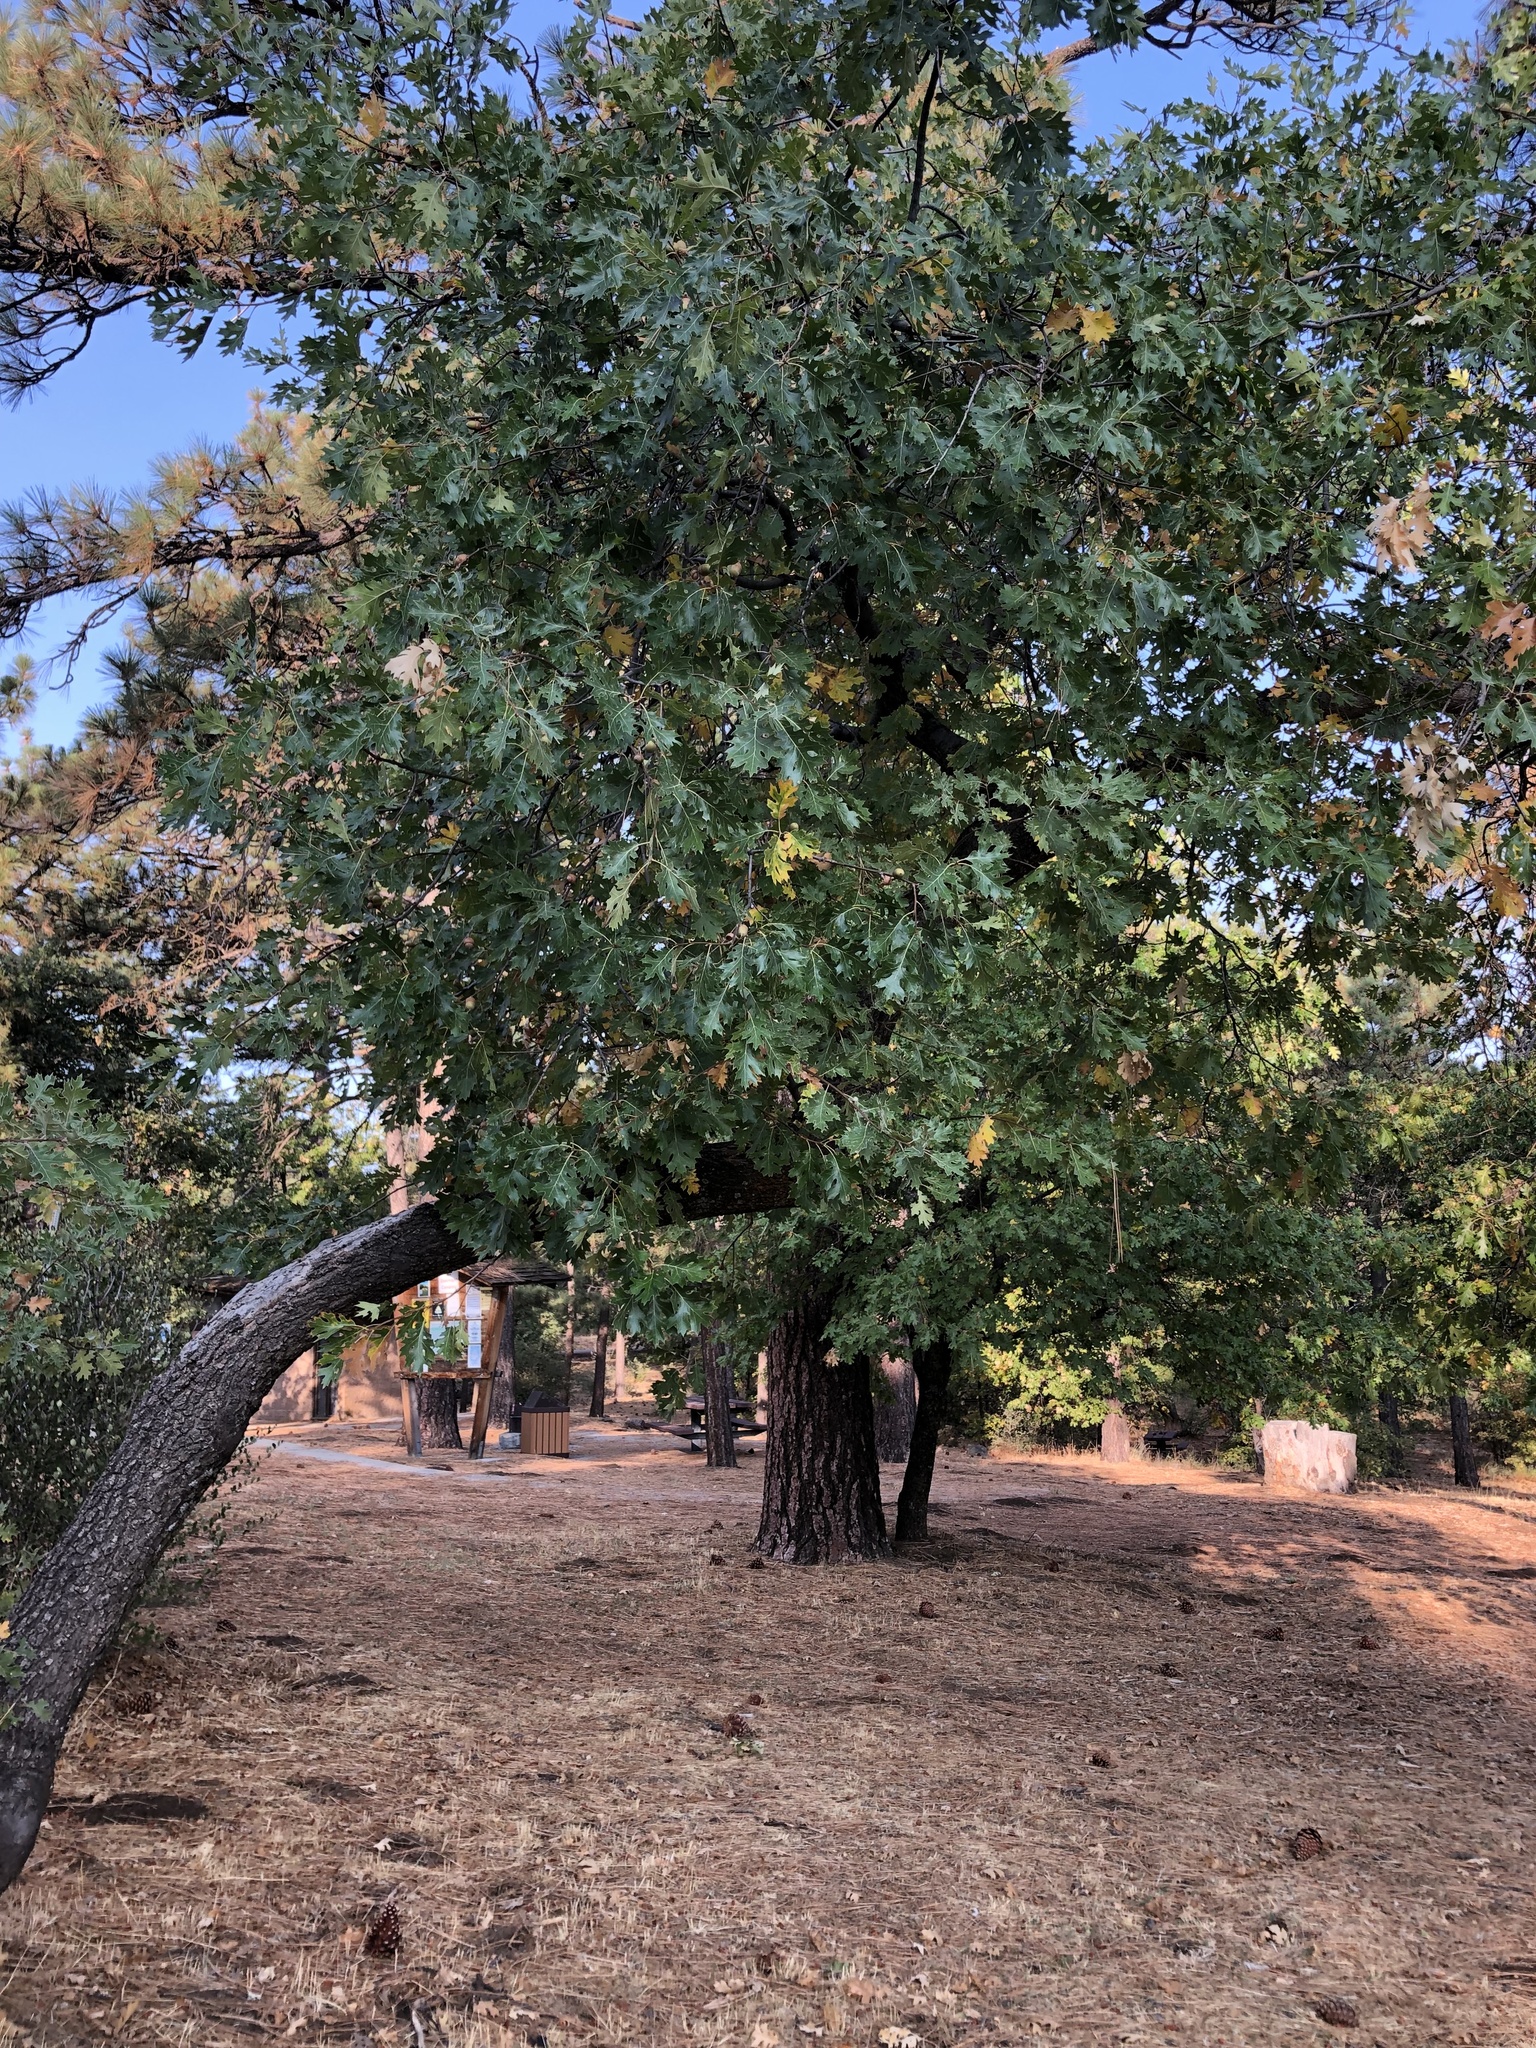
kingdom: Plantae
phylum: Tracheophyta
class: Magnoliopsida
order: Fagales
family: Fagaceae
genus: Quercus
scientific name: Quercus kelloggii
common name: California black oak
